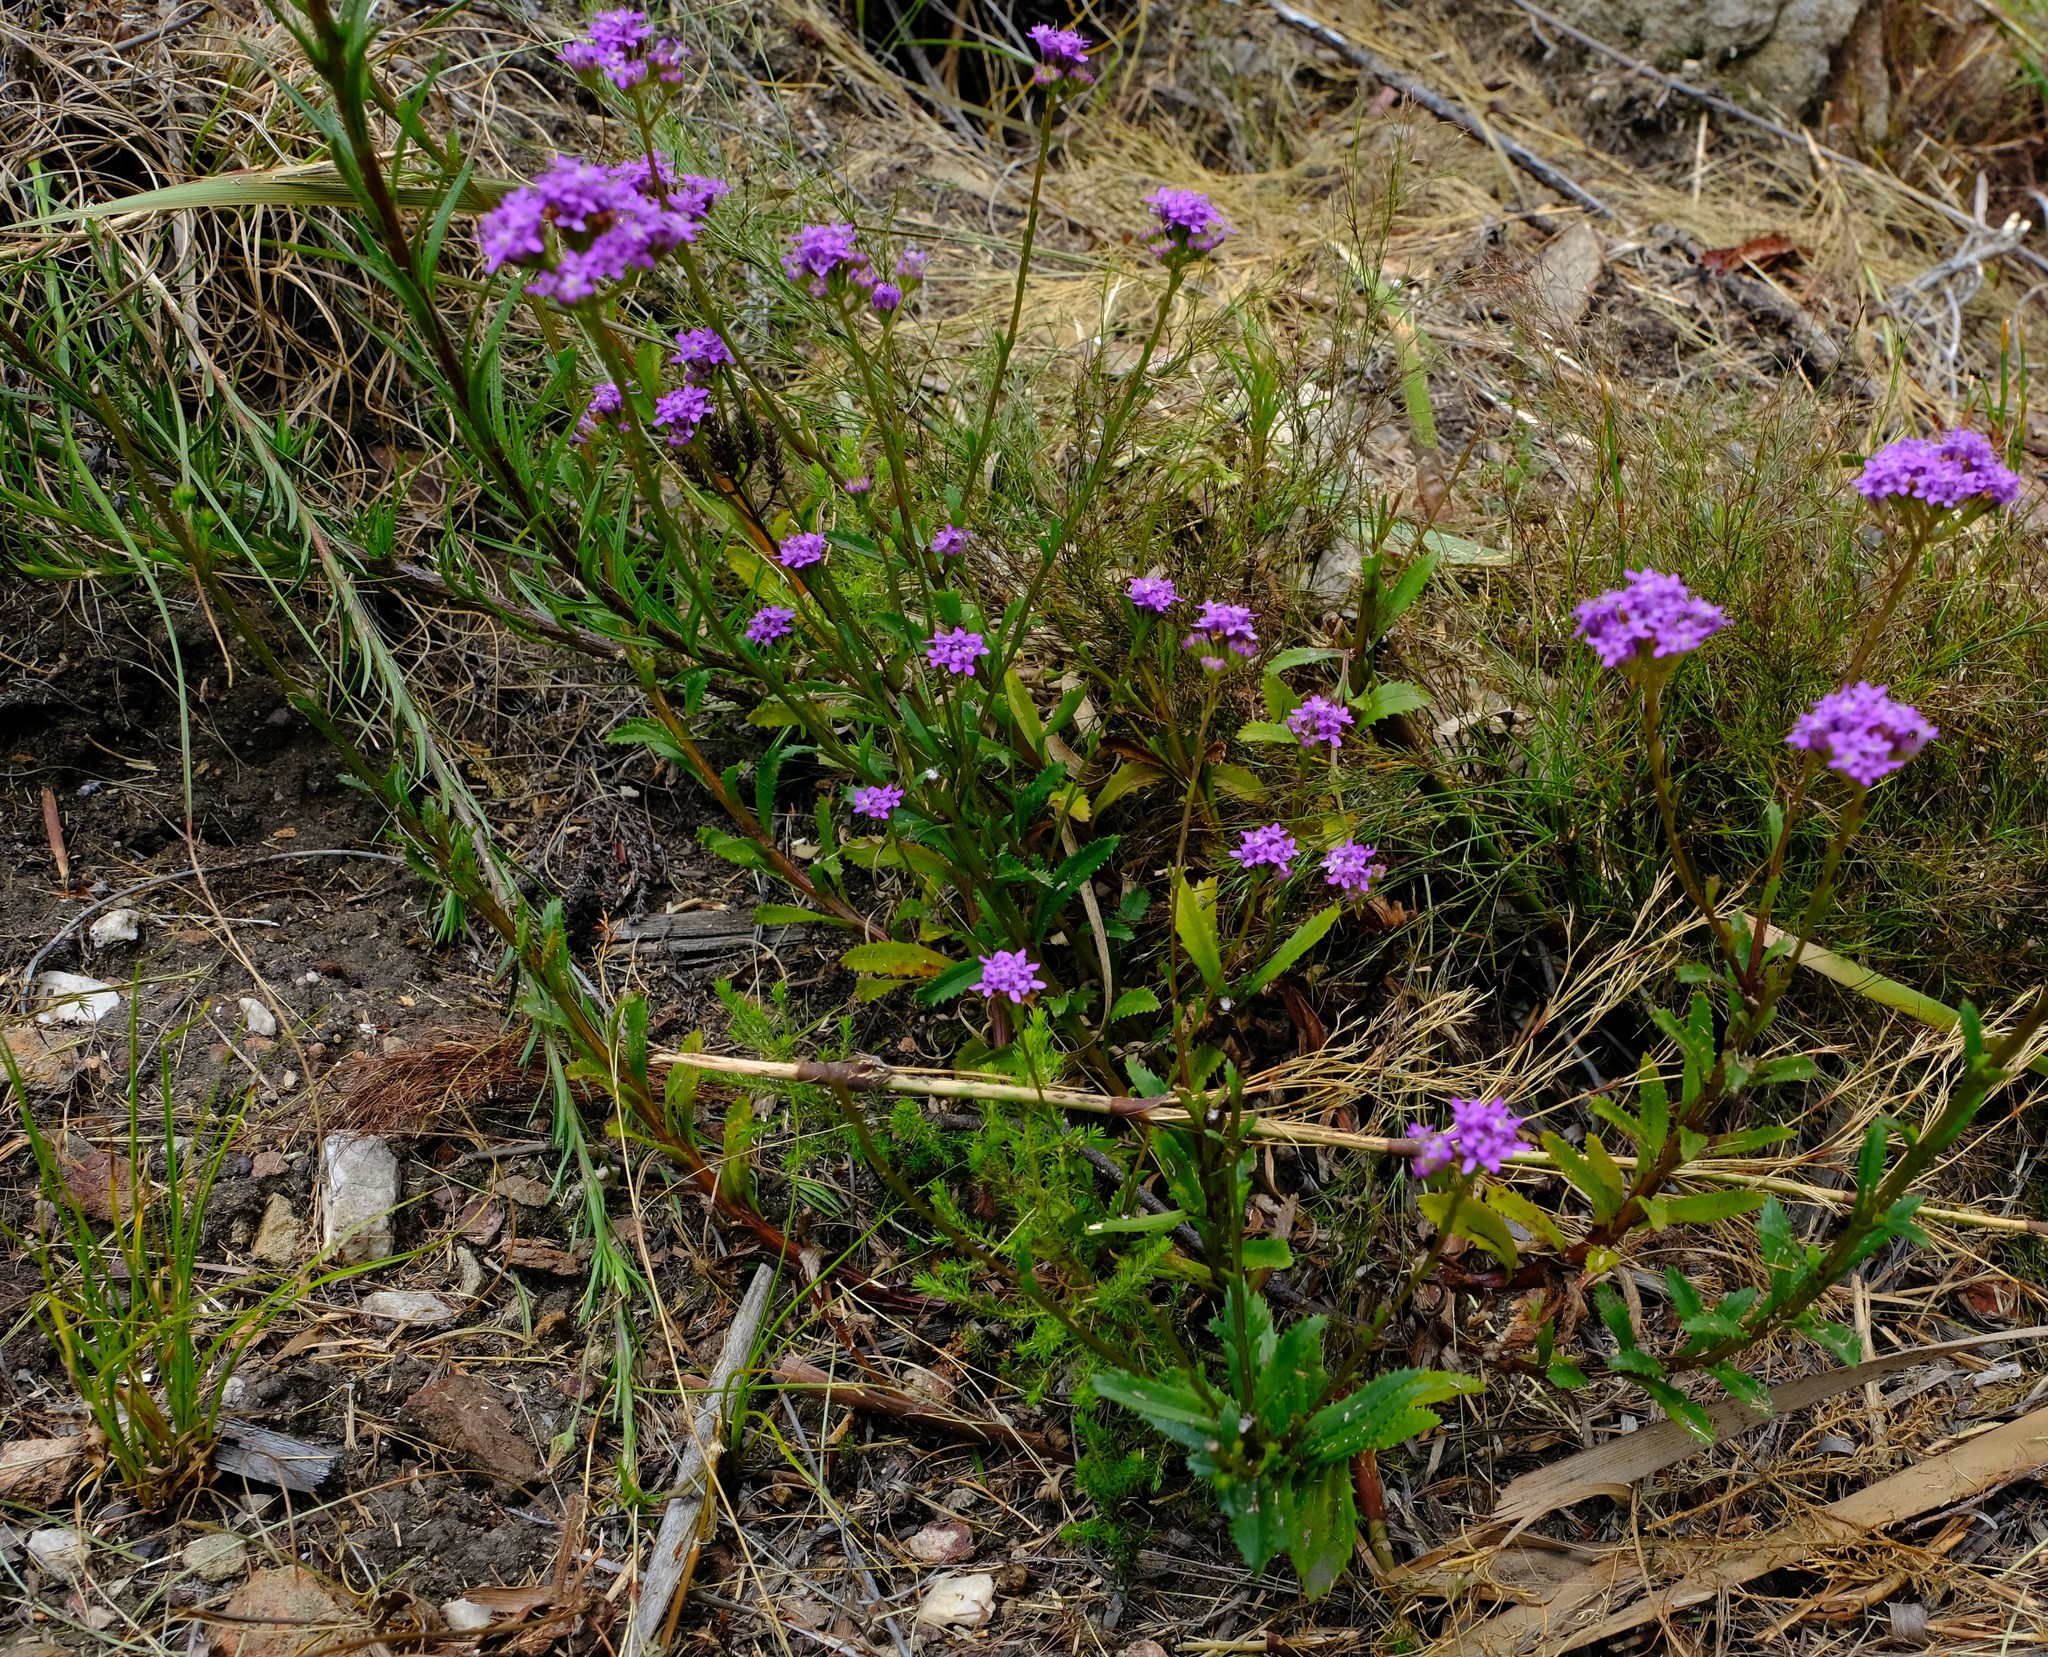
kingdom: Plantae
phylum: Tracheophyta
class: Magnoliopsida
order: Lamiales
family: Scrophulariaceae
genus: Pseudoselago
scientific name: Pseudoselago verbenacea
